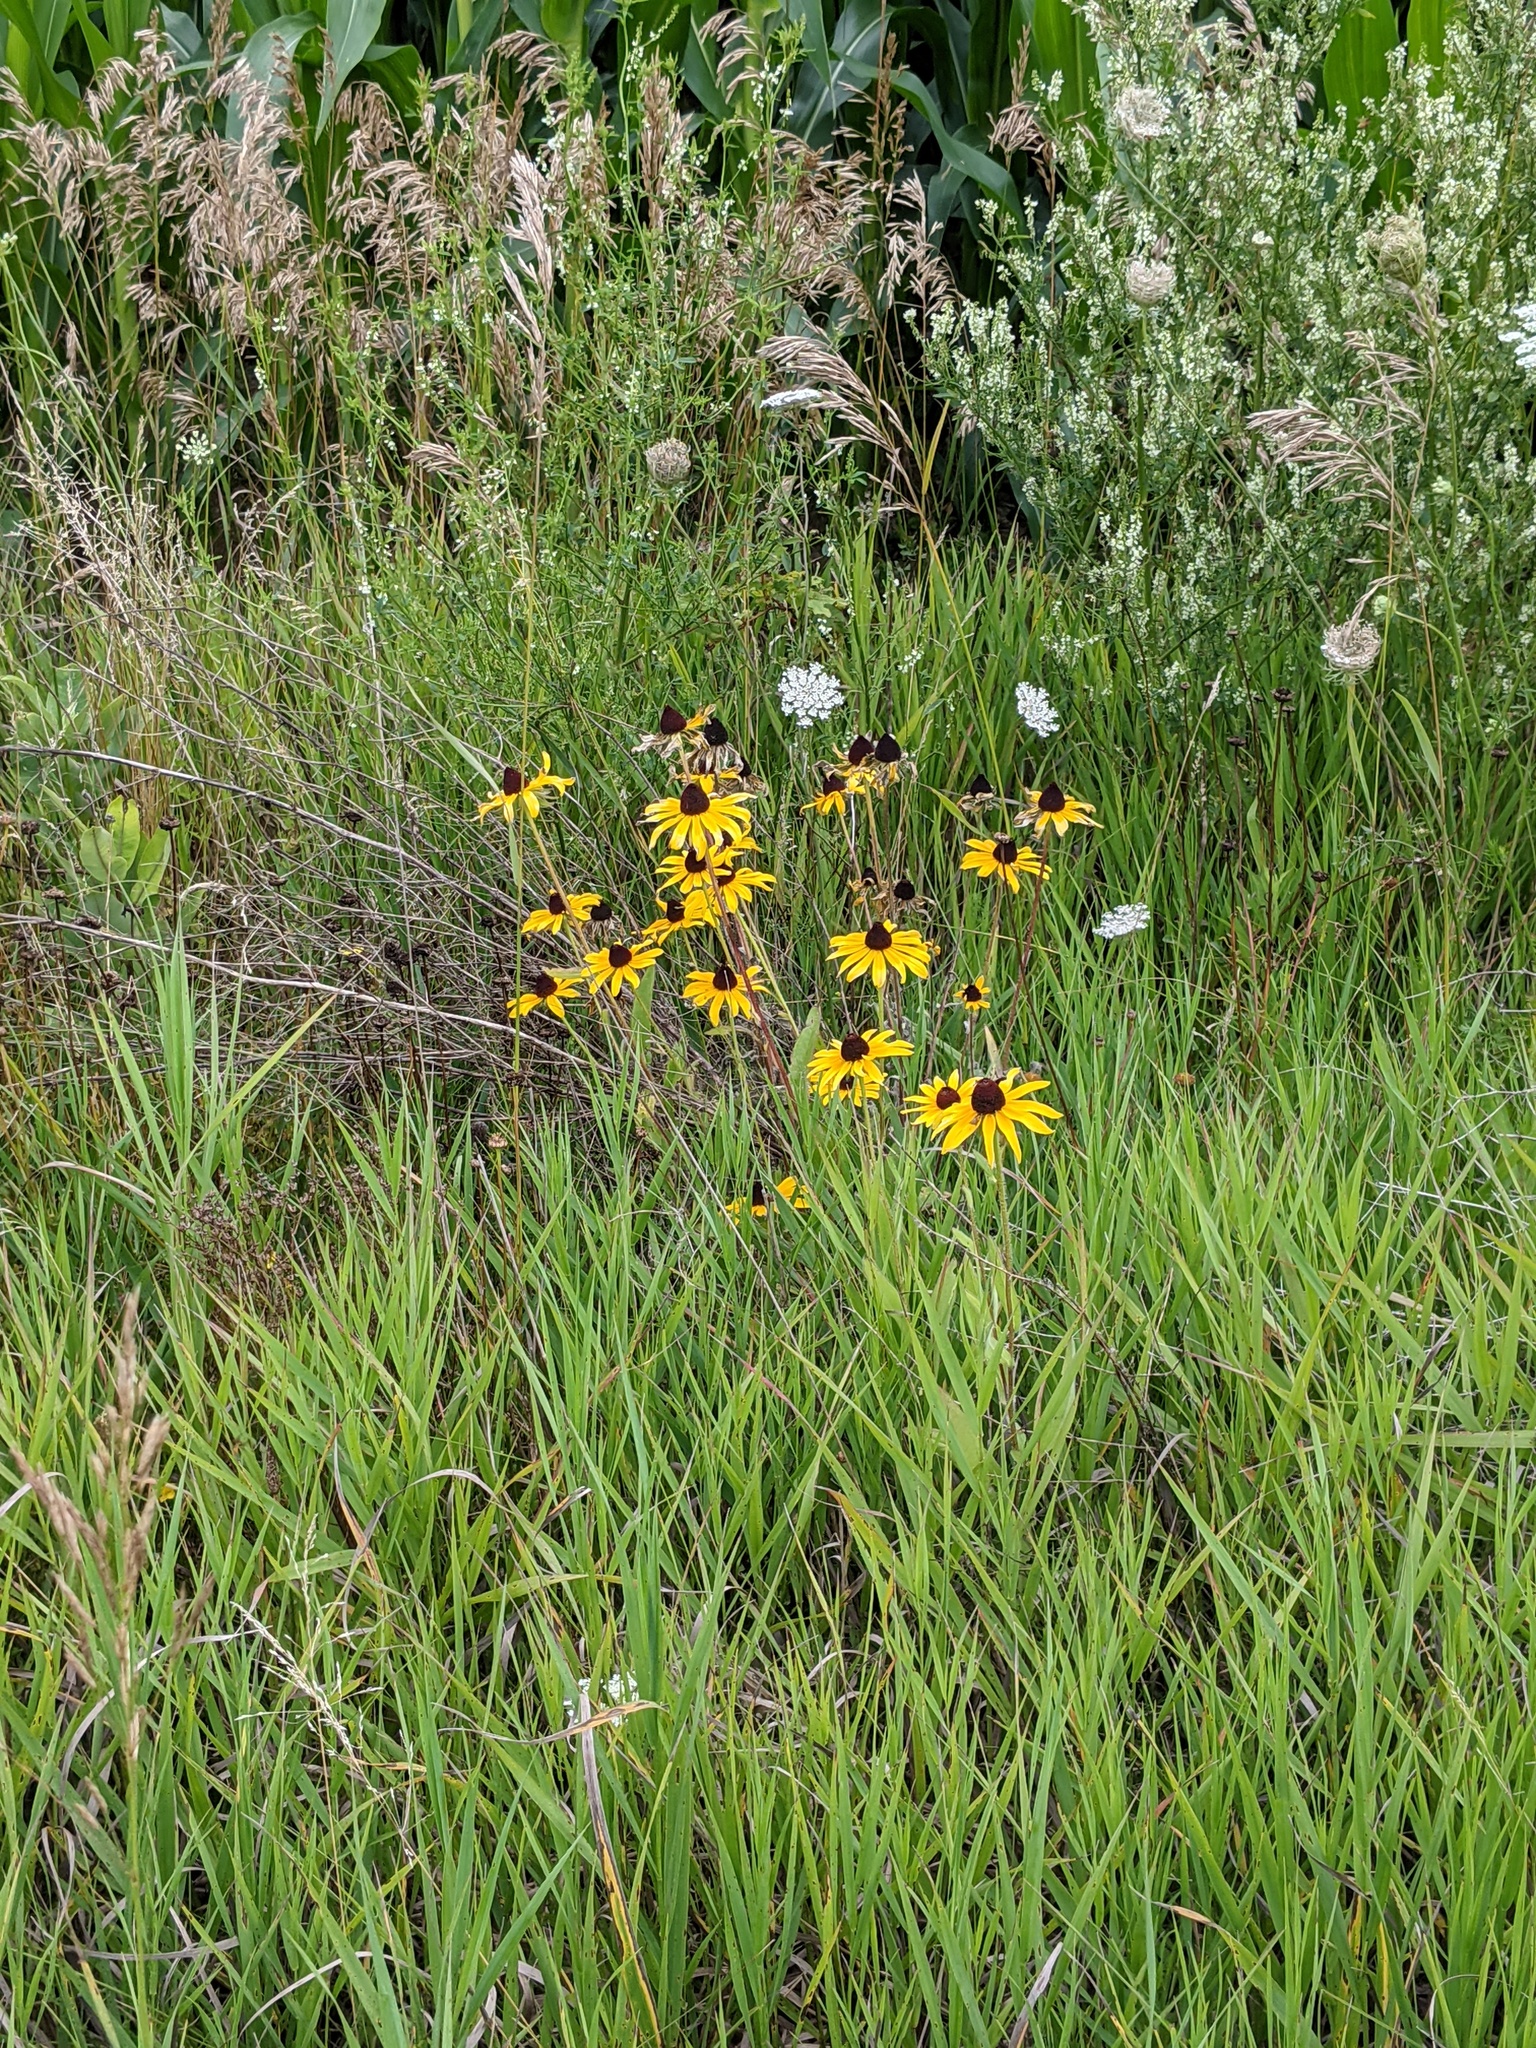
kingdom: Plantae
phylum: Tracheophyta
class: Magnoliopsida
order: Asterales
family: Asteraceae
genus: Rudbeckia
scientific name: Rudbeckia hirta
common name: Black-eyed-susan
